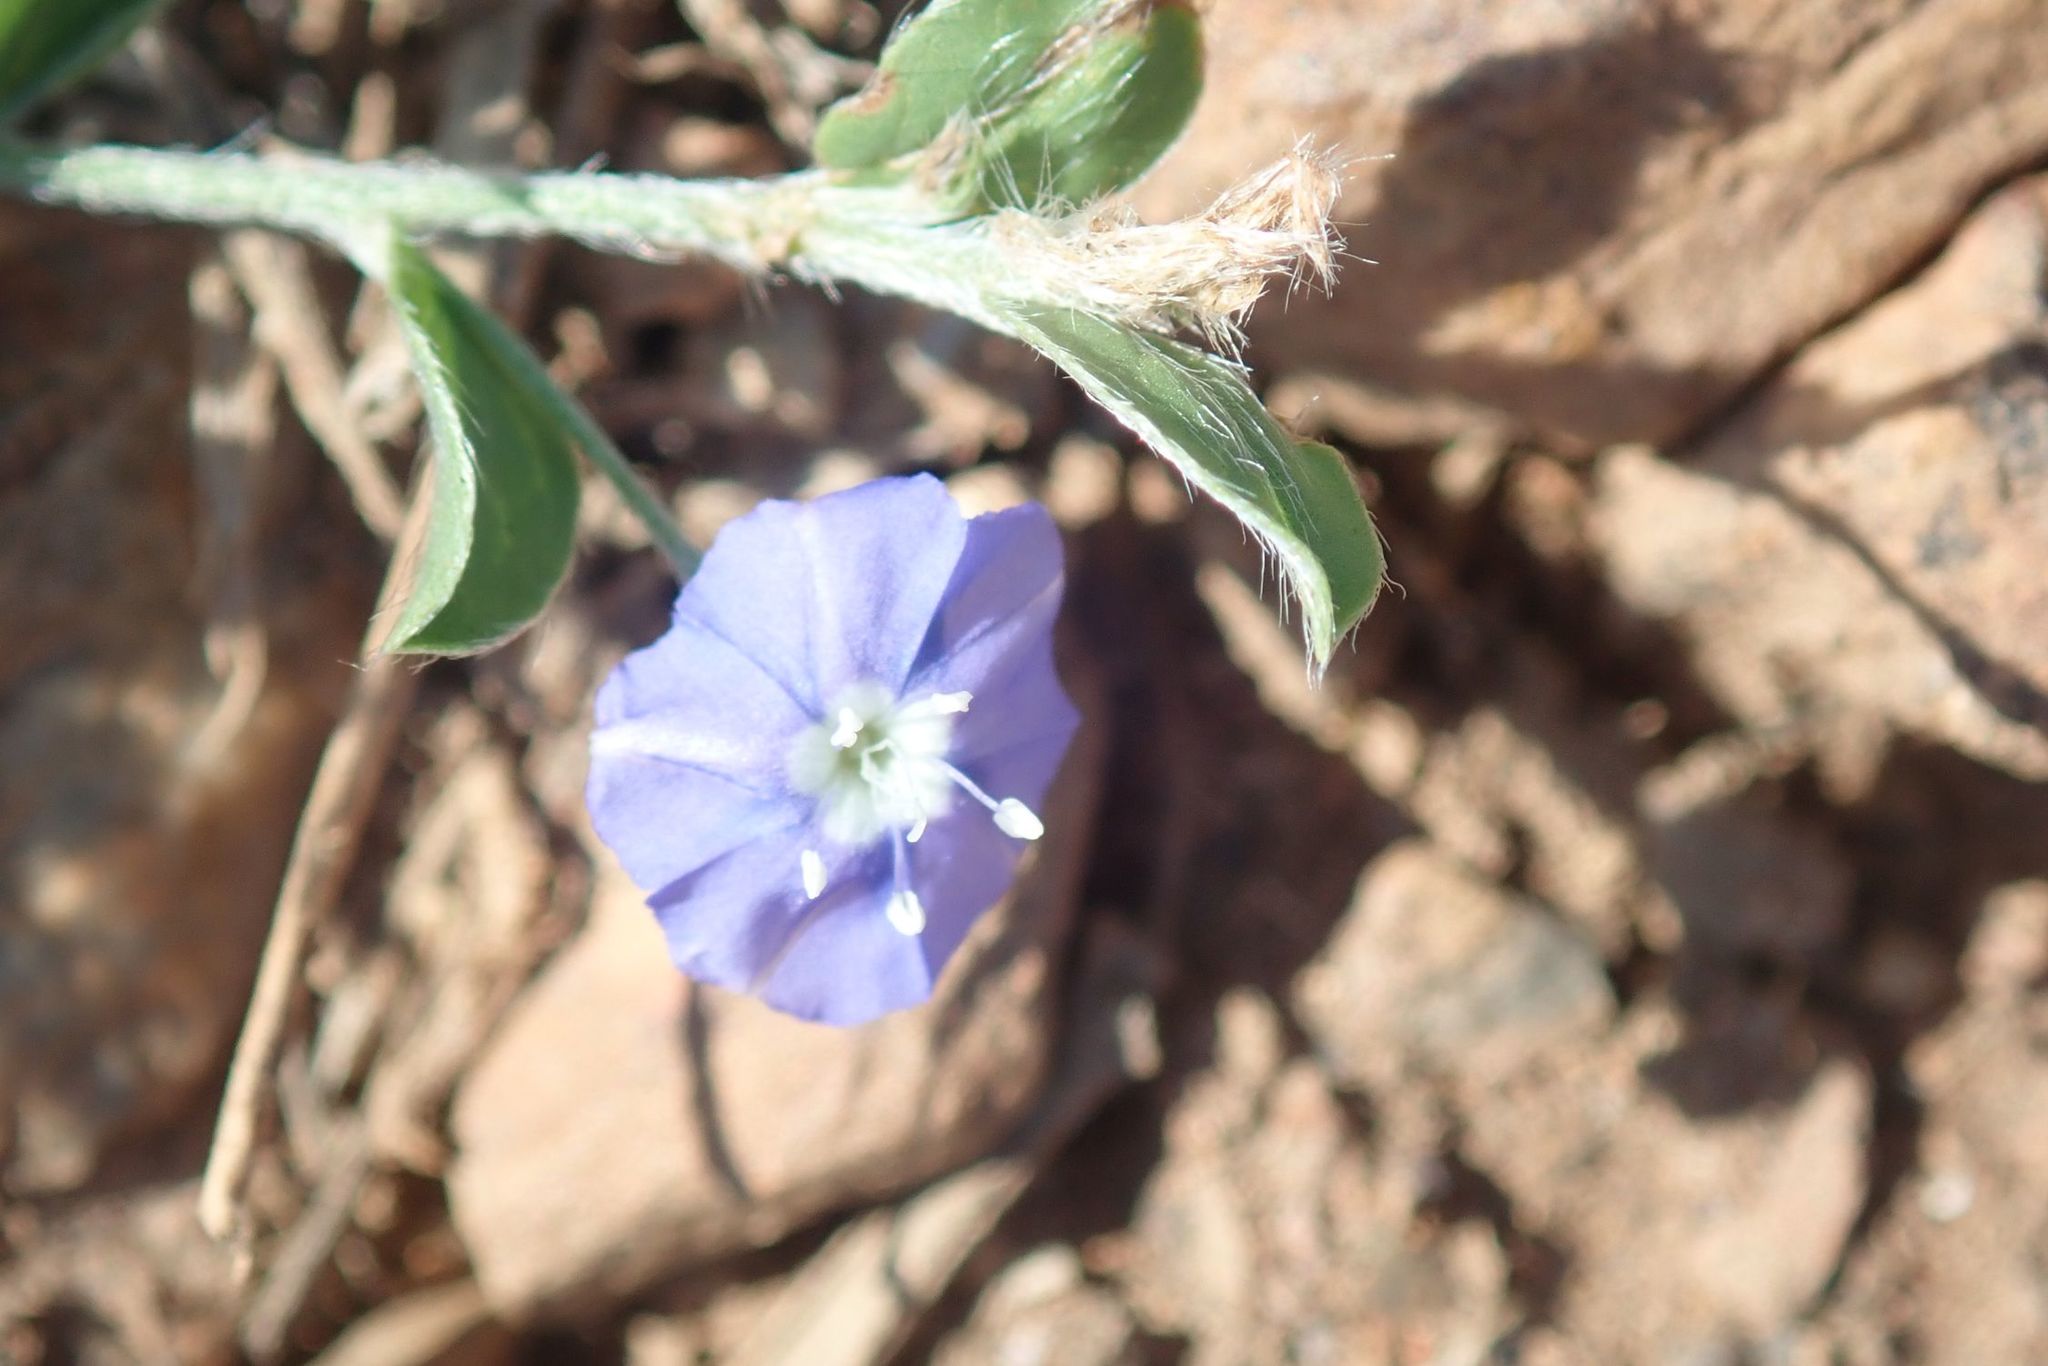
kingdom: Plantae
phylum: Tracheophyta
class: Magnoliopsida
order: Solanales
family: Convolvulaceae
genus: Evolvulus
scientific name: Evolvulus alsinoides
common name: Slender dwarf morning-glory
